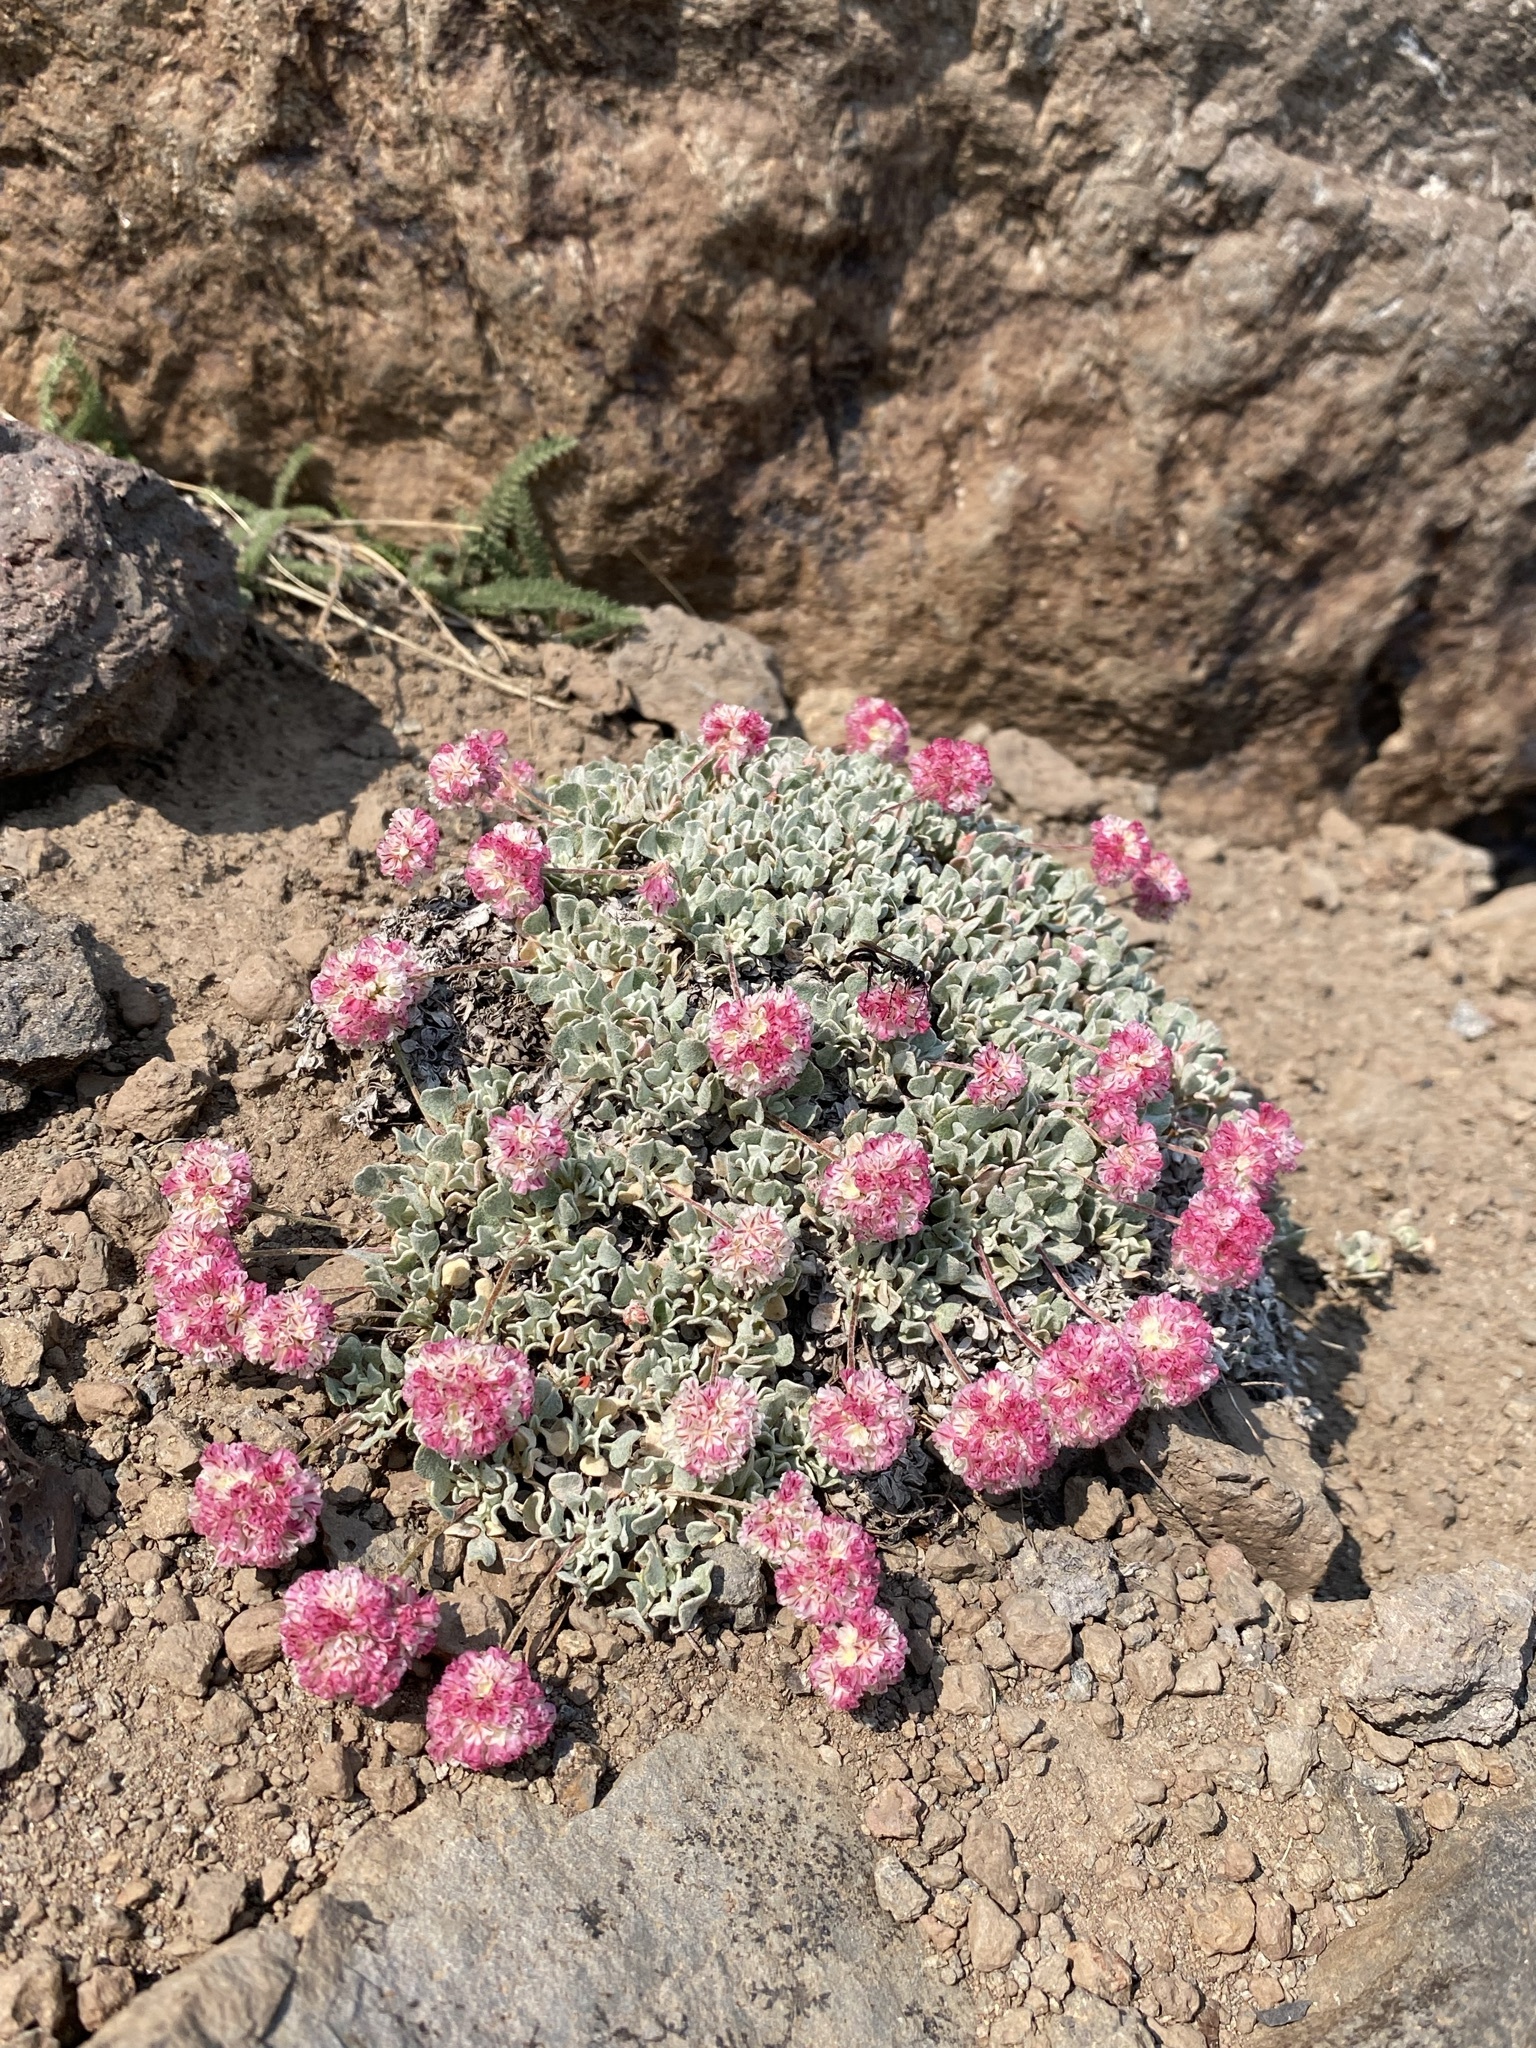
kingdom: Plantae
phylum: Tracheophyta
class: Magnoliopsida
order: Caryophyllales
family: Polygonaceae
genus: Eriogonum
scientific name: Eriogonum ovalifolium
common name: Cushion buckwheat
